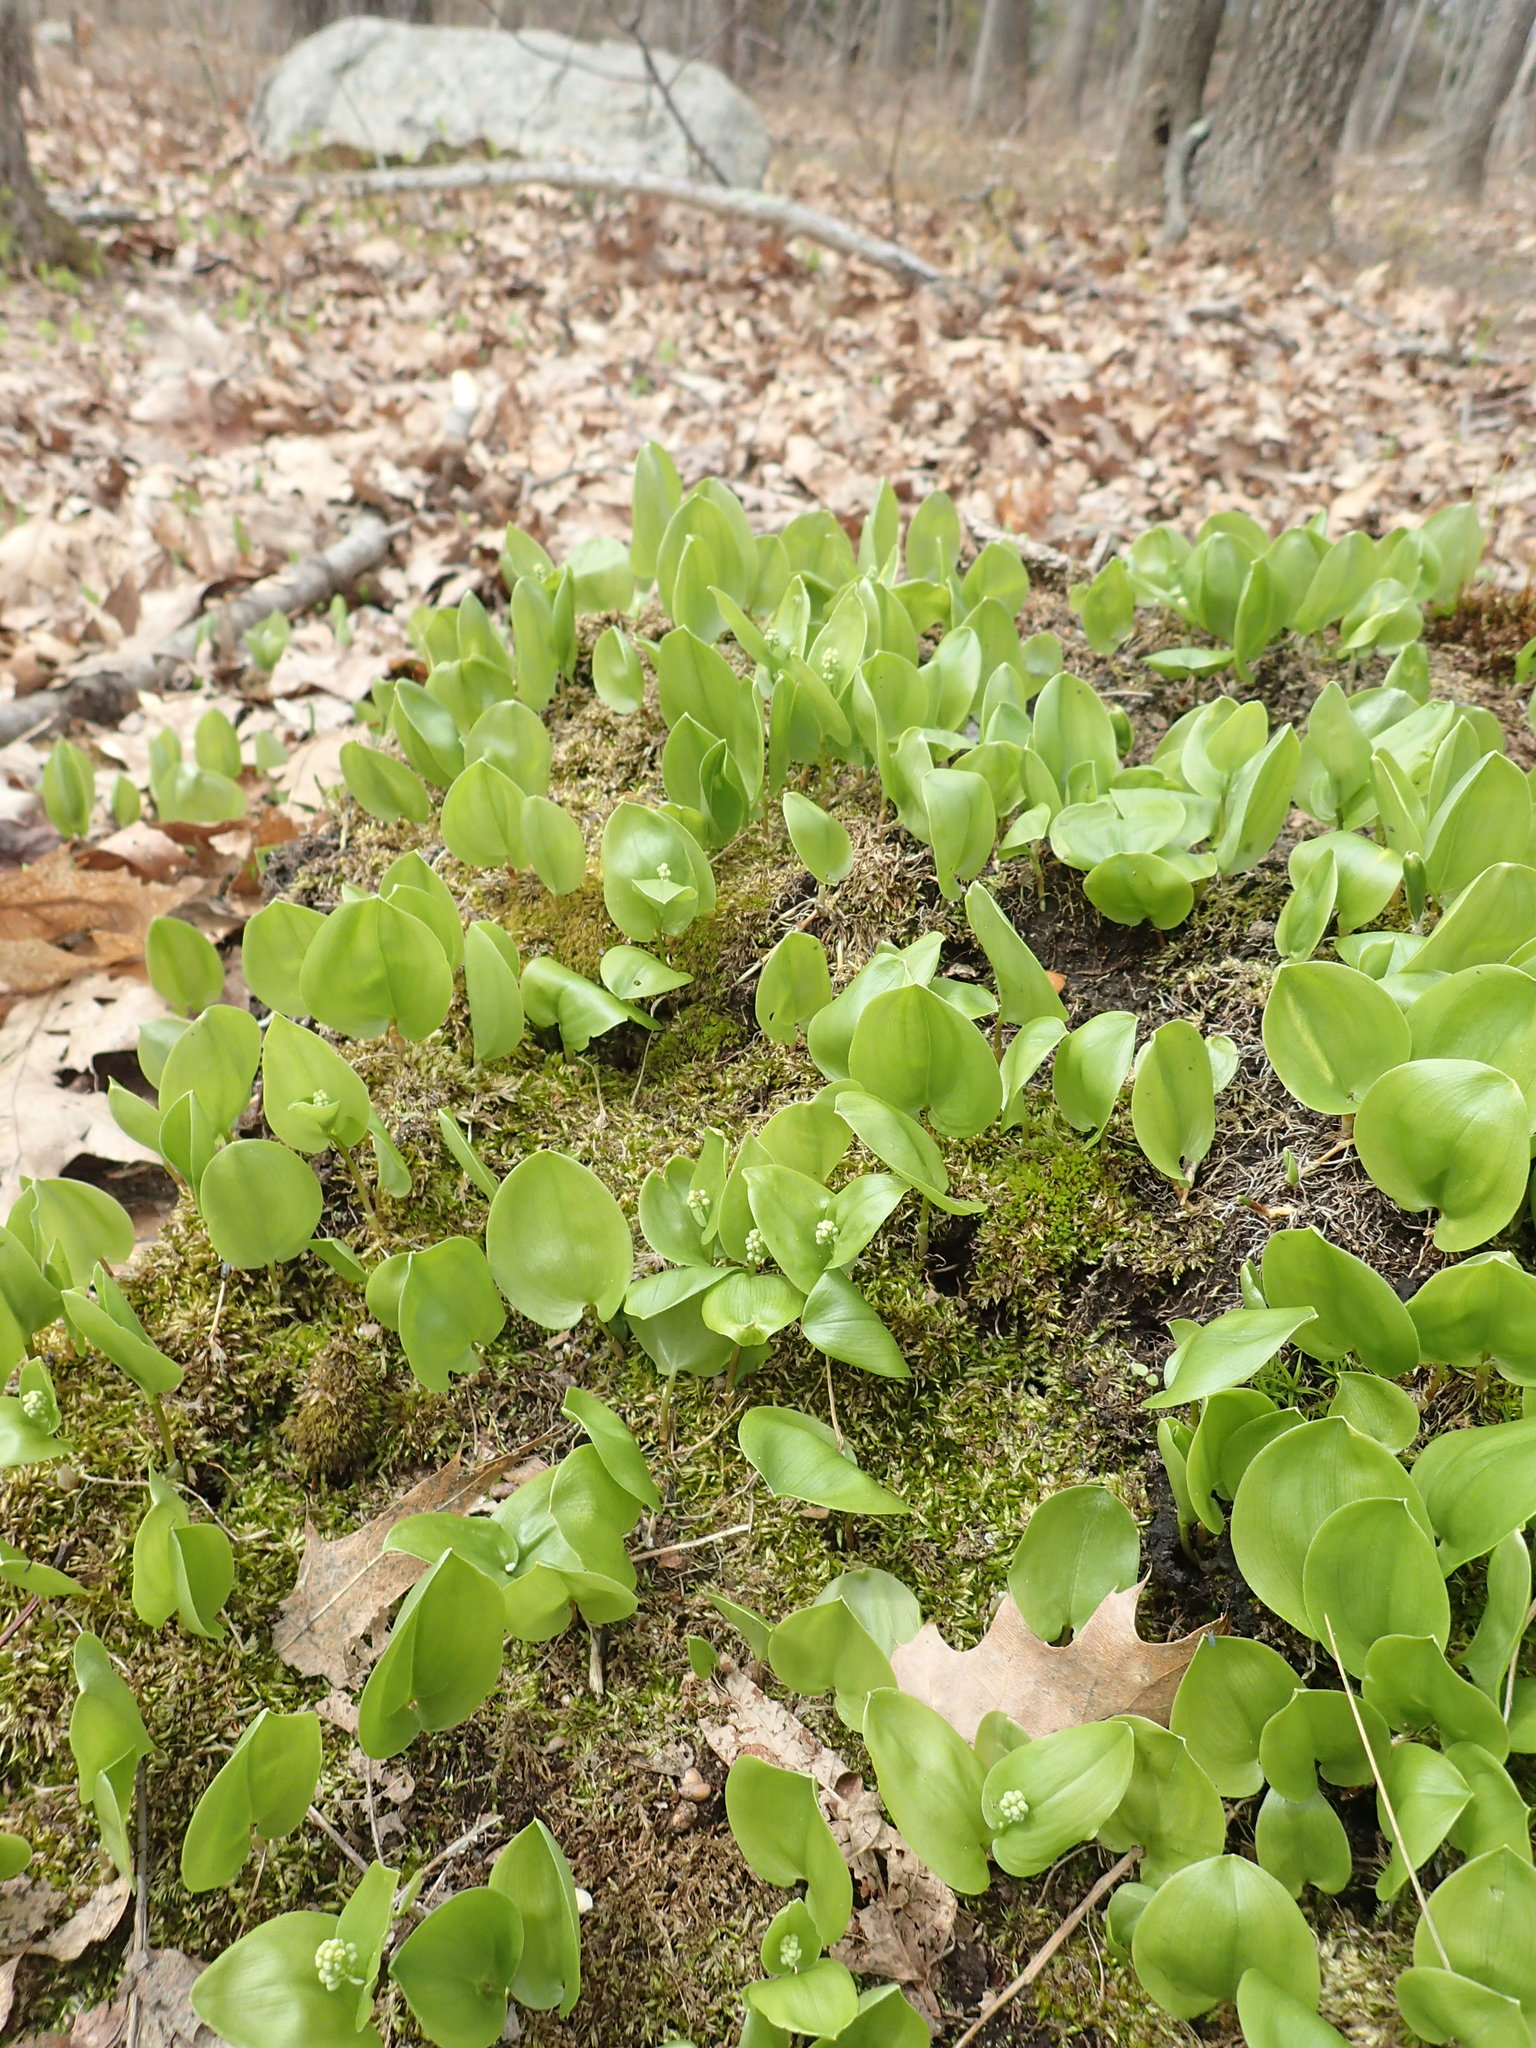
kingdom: Plantae
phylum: Tracheophyta
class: Liliopsida
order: Asparagales
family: Asparagaceae
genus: Maianthemum
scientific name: Maianthemum canadense
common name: False lily-of-the-valley
